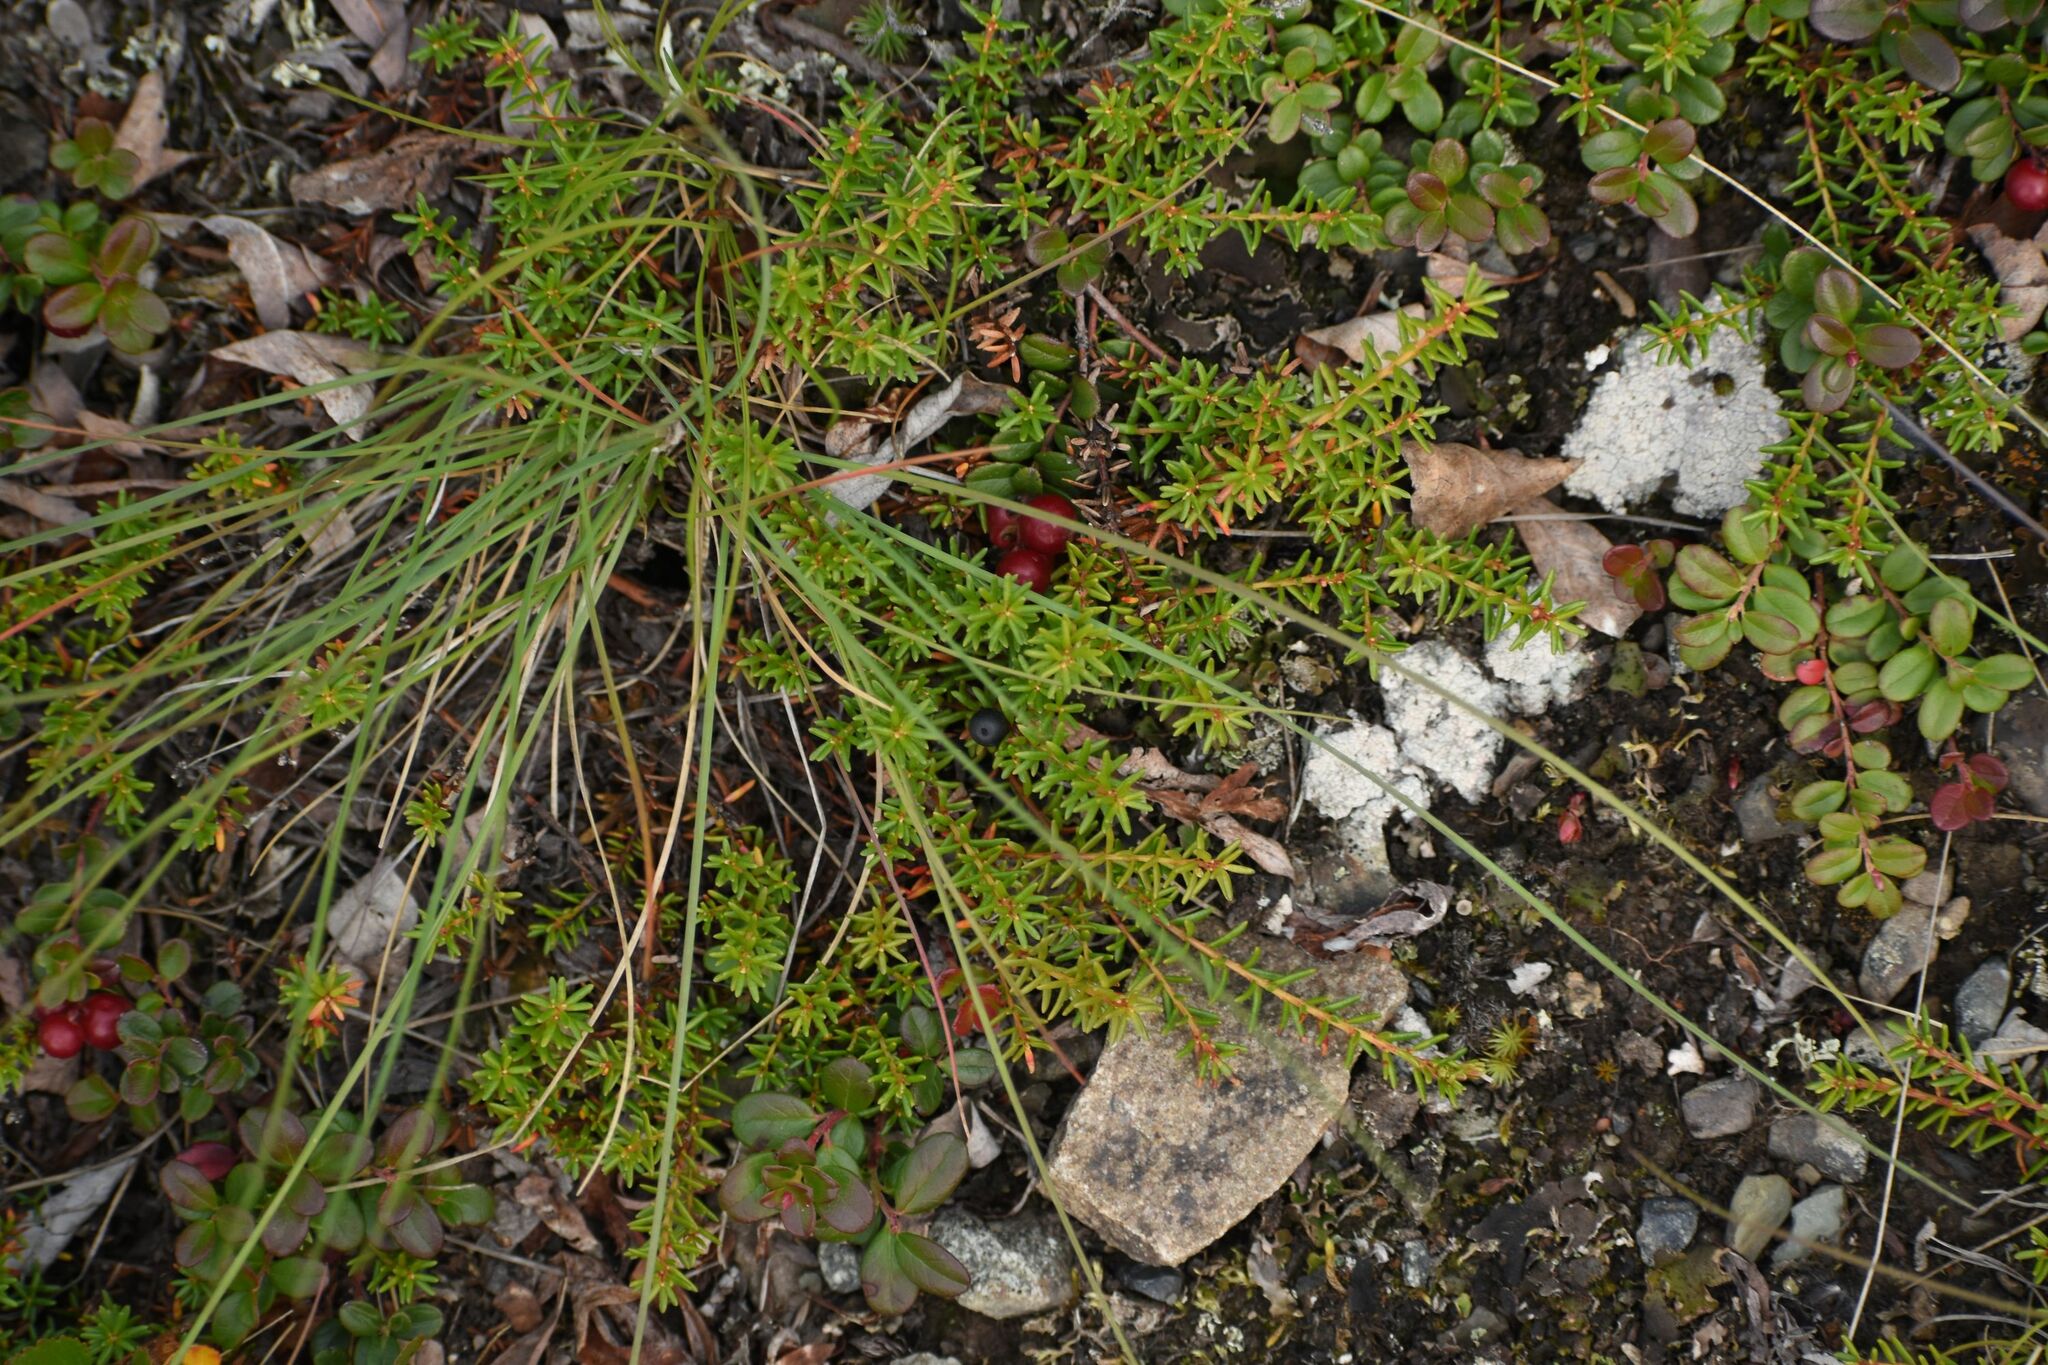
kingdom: Plantae
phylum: Tracheophyta
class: Magnoliopsida
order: Ericales
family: Ericaceae
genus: Empetrum
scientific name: Empetrum nigrum
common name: Black crowberry
